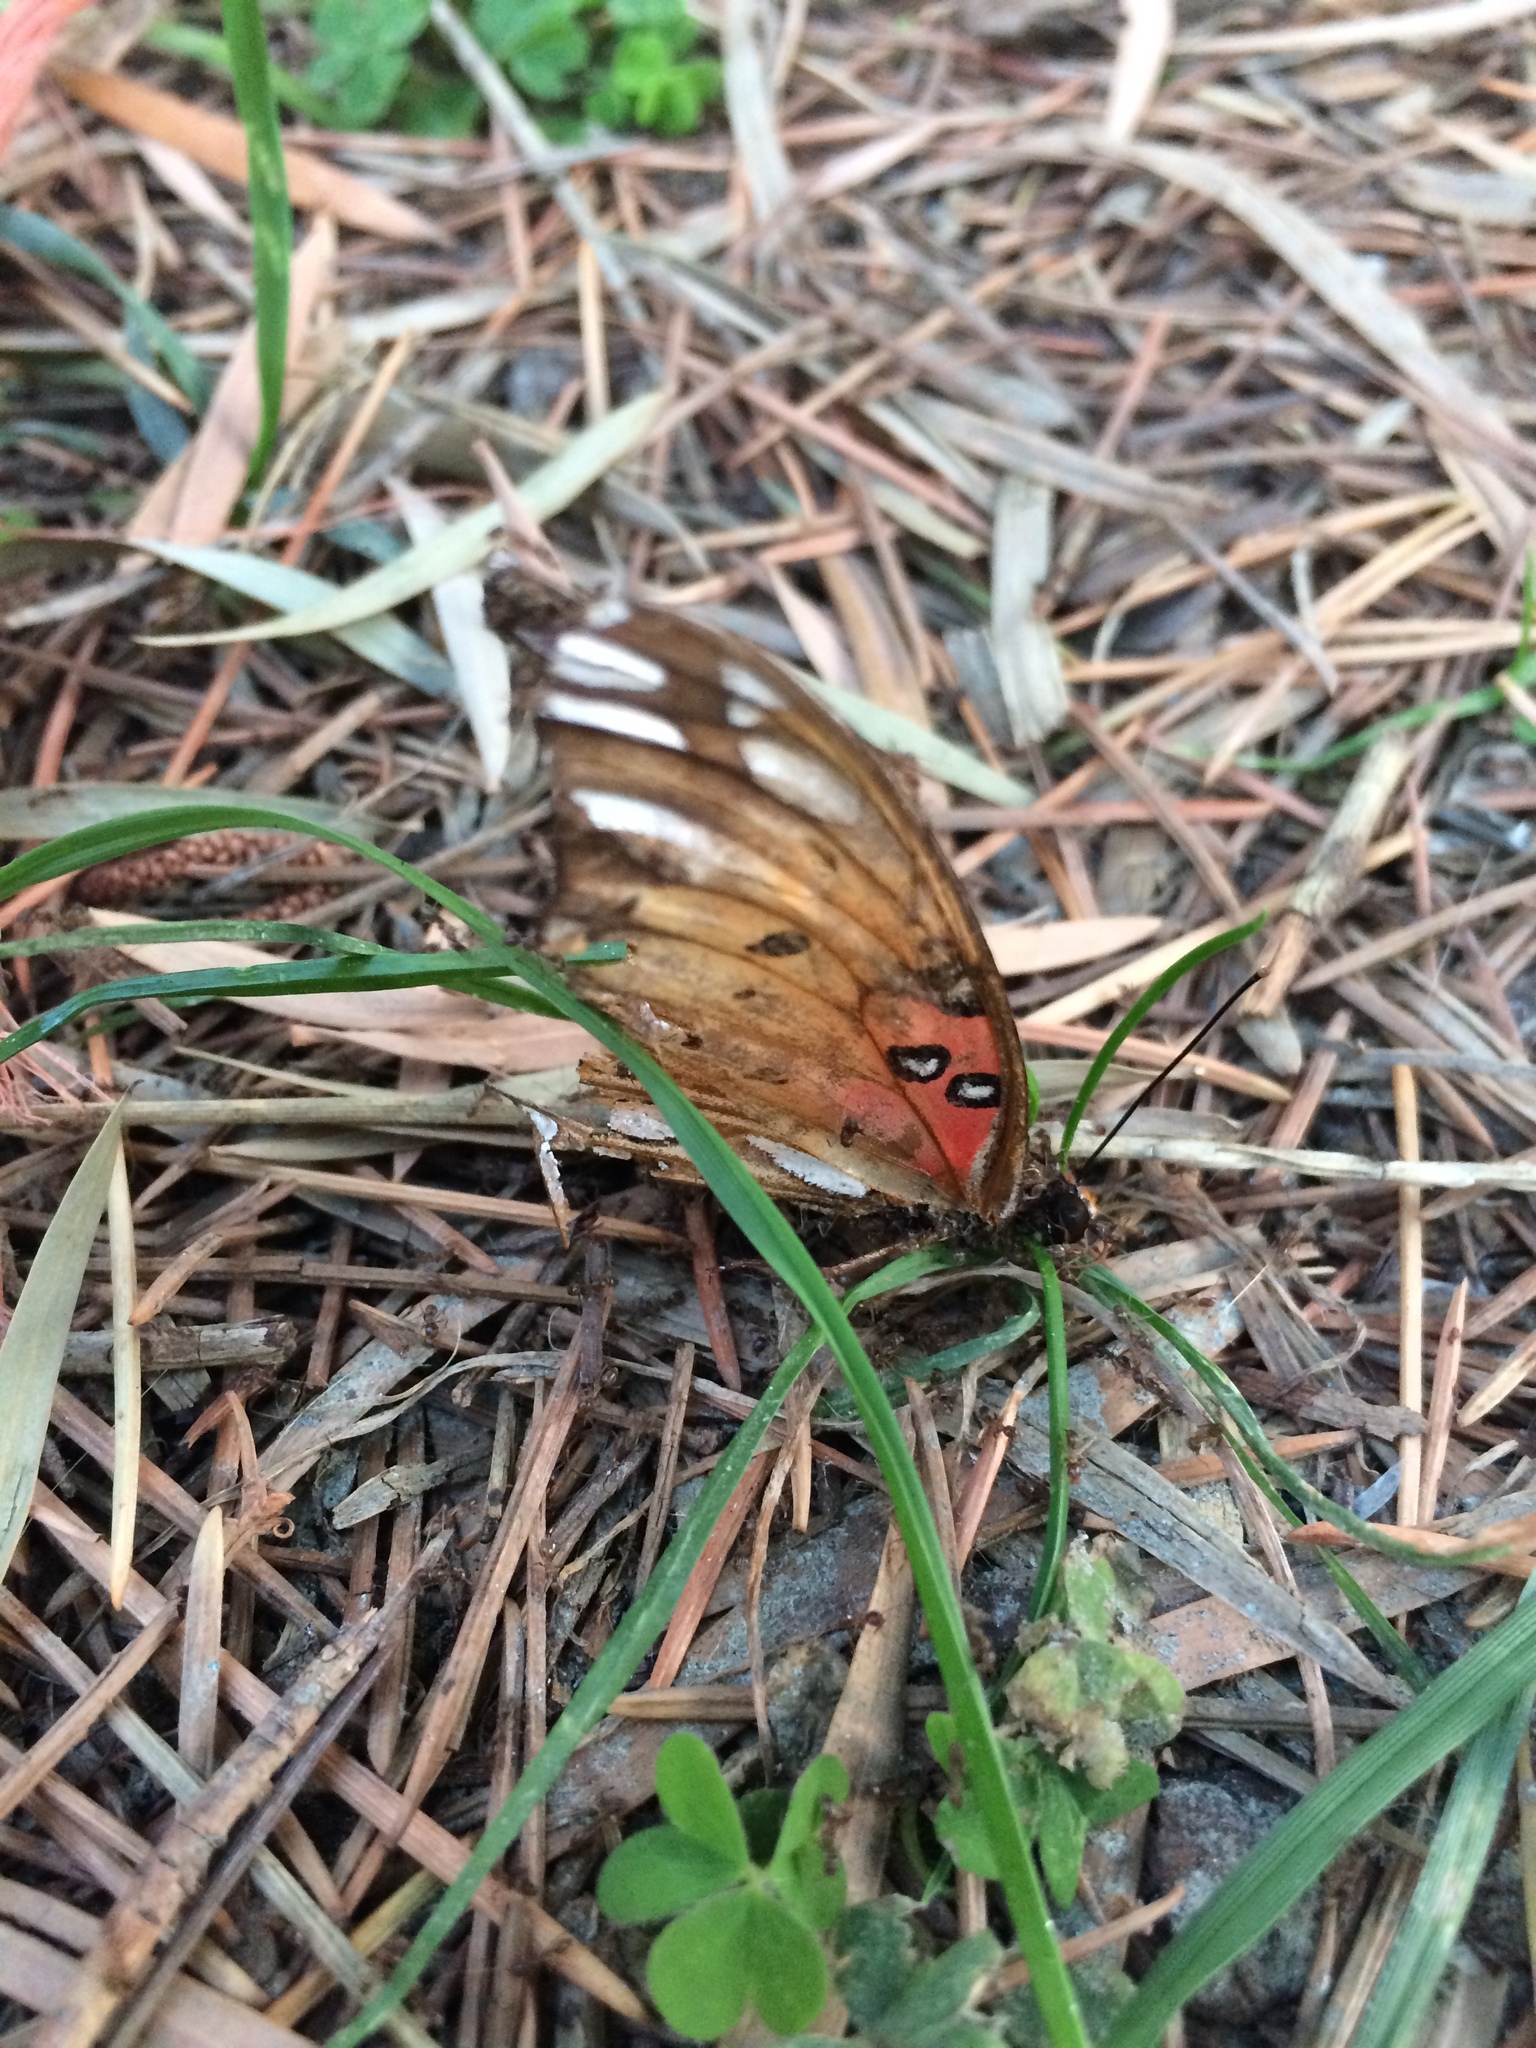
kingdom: Animalia
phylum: Arthropoda
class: Insecta
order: Lepidoptera
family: Nymphalidae
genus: Dione
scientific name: Dione vanillae
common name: Gulf fritillary
